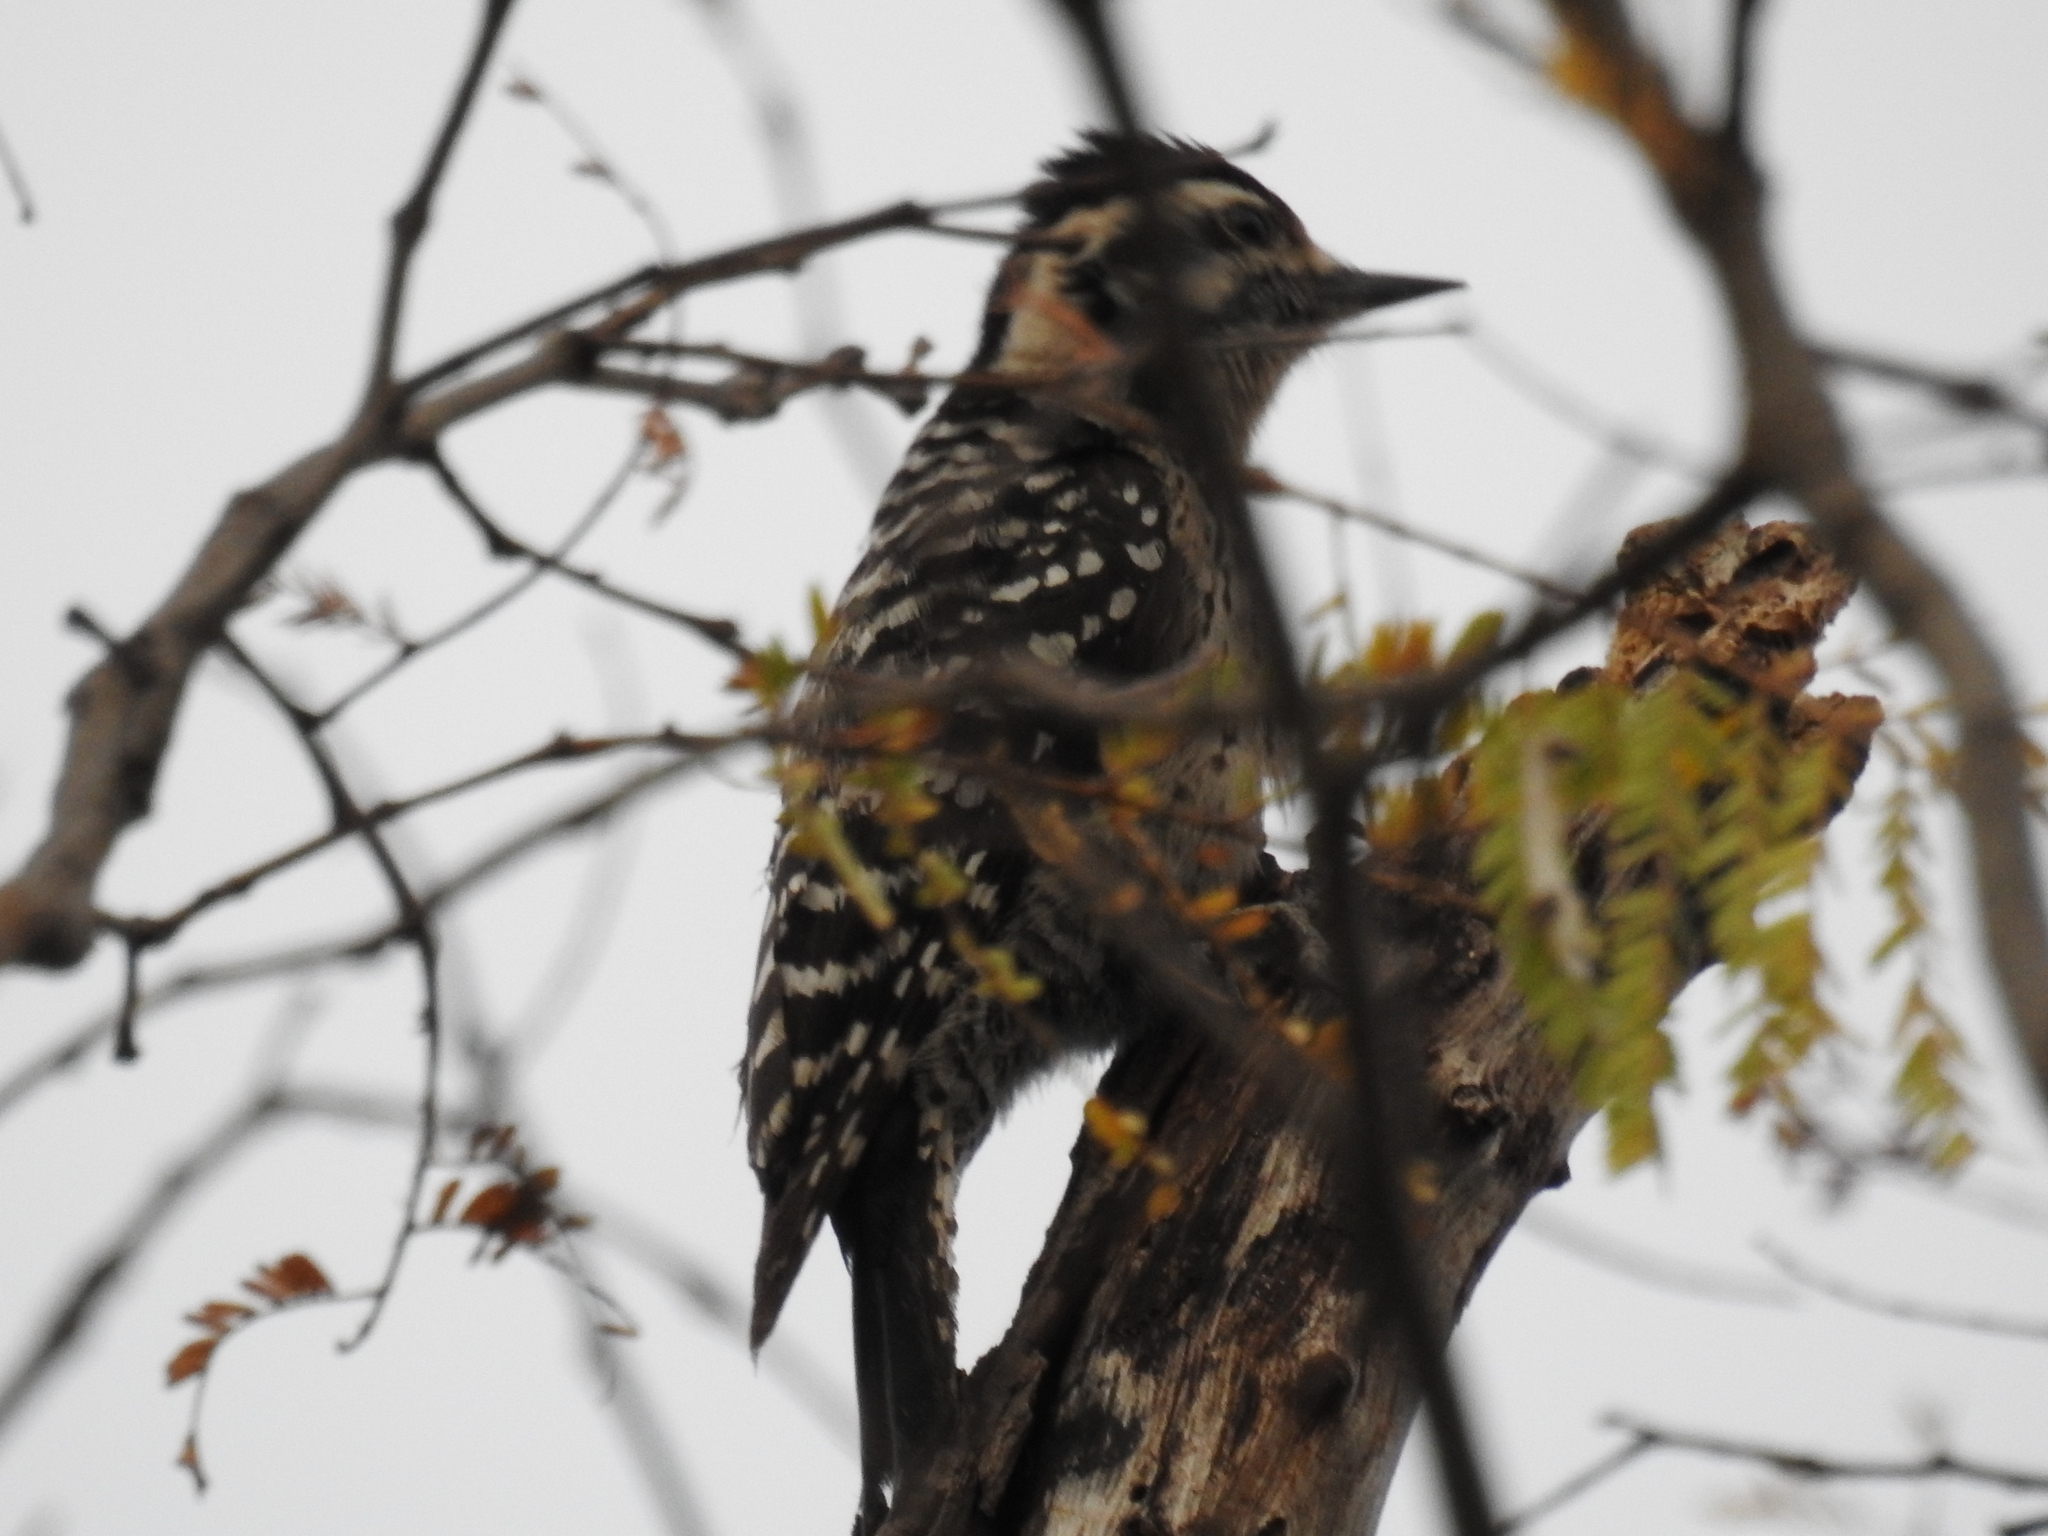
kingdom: Animalia
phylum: Chordata
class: Aves
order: Piciformes
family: Picidae
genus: Dryobates
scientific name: Dryobates scalaris
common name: Ladder-backed woodpecker
